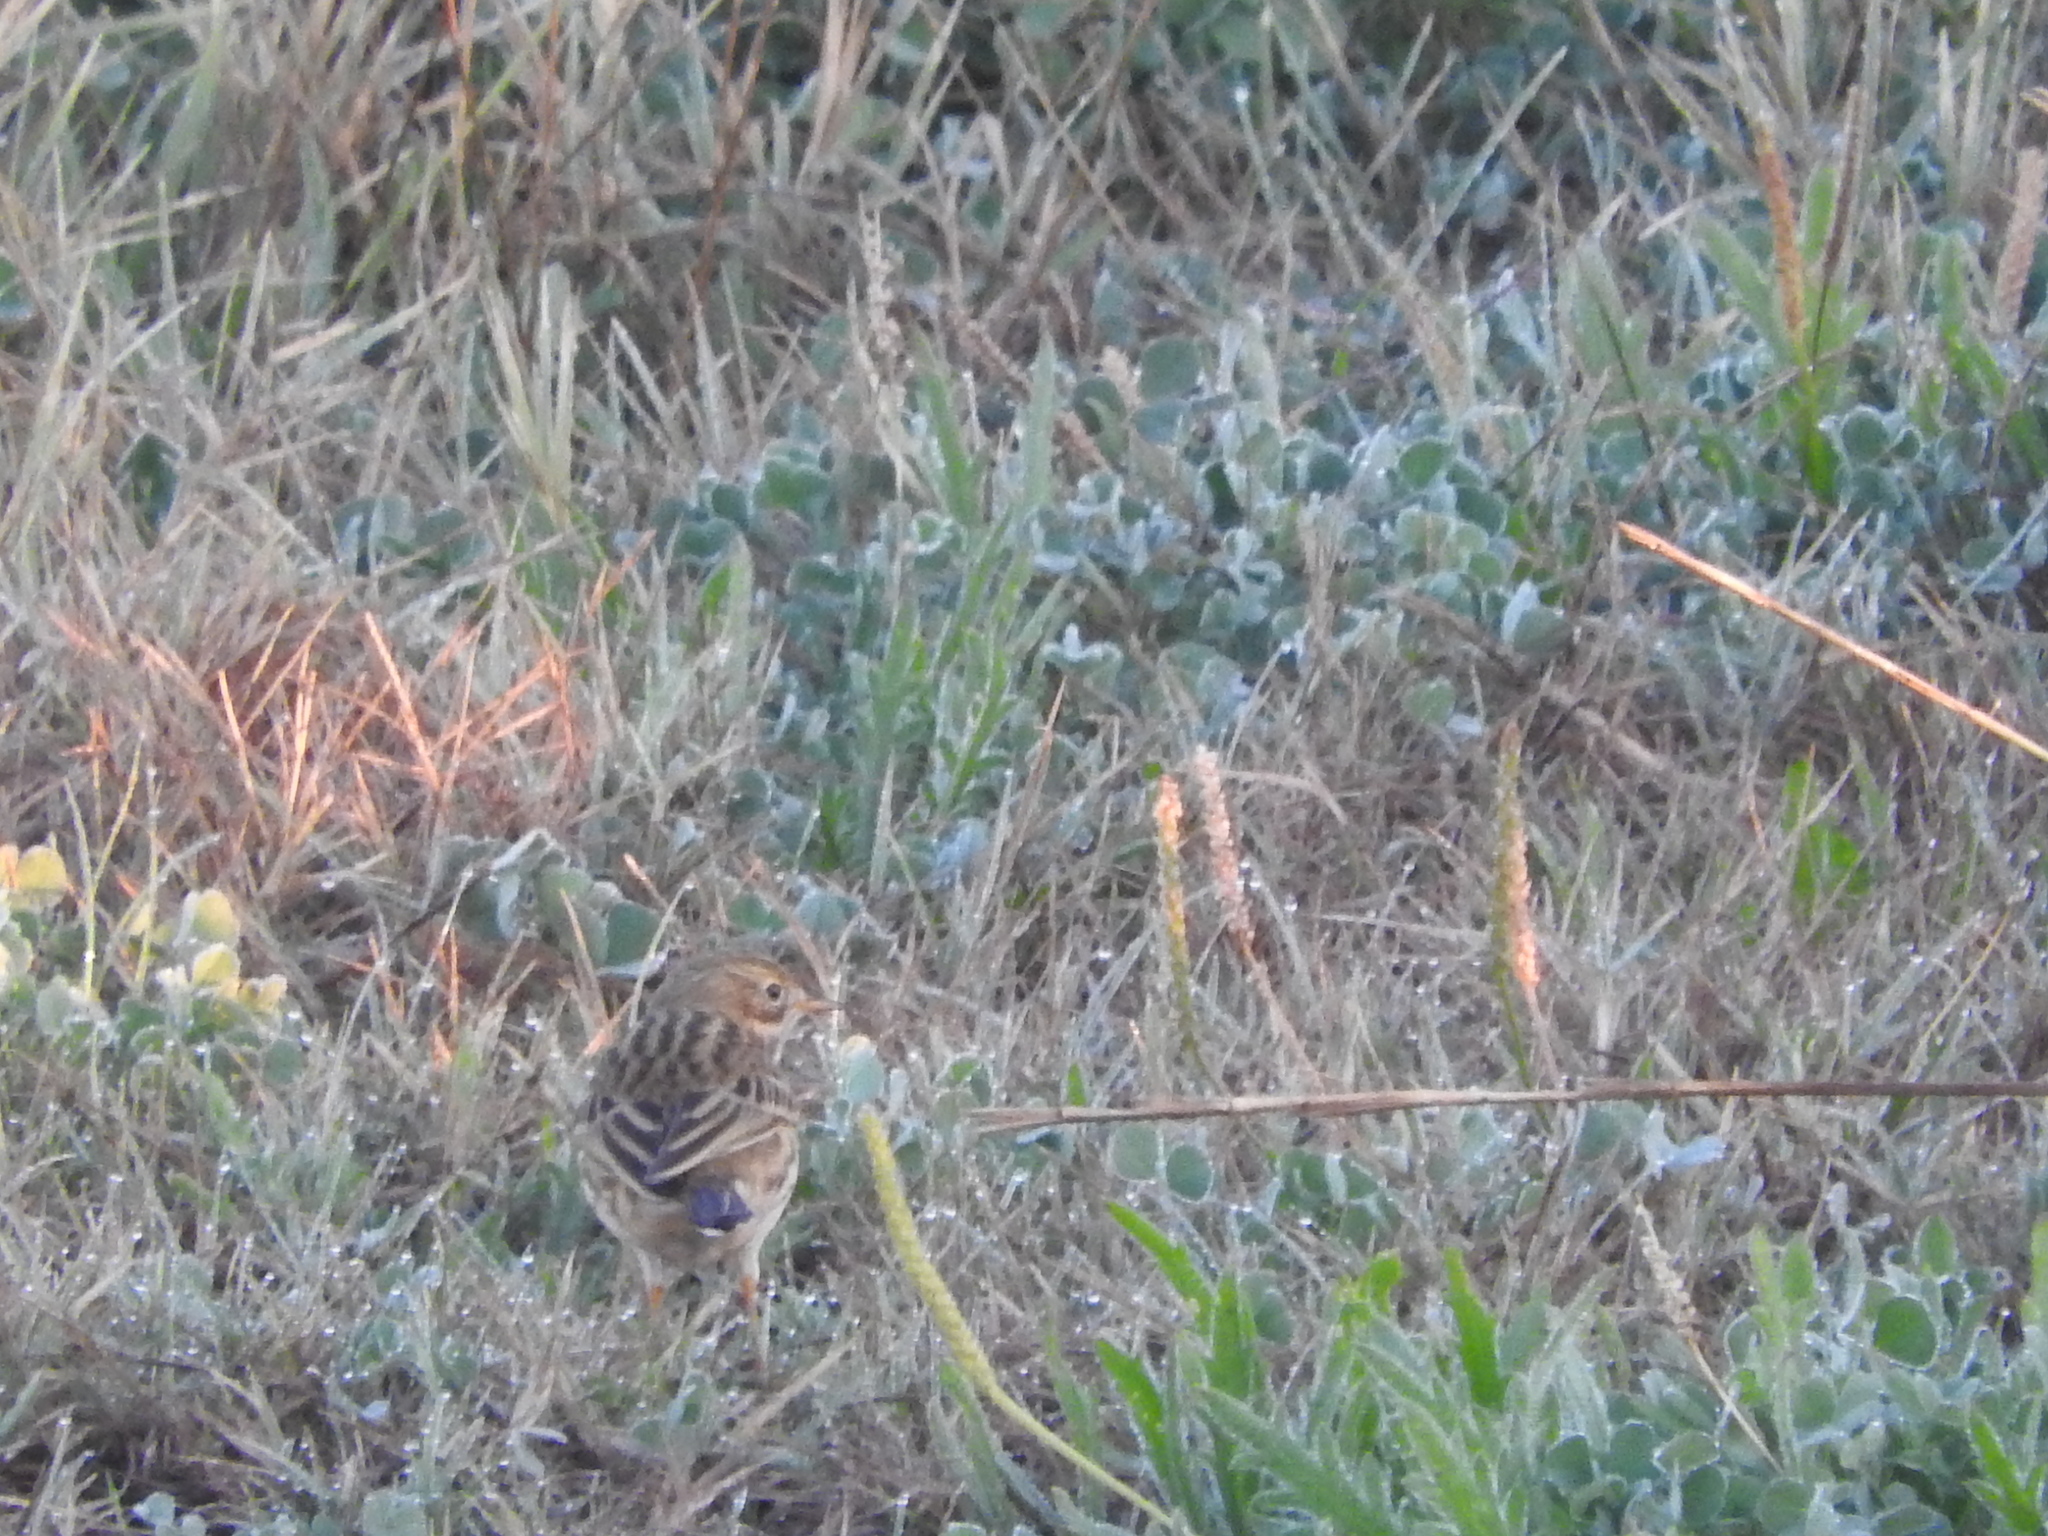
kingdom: Animalia
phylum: Chordata
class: Aves
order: Passeriformes
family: Motacillidae
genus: Anthus
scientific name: Anthus pratensis
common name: Meadow pipit
